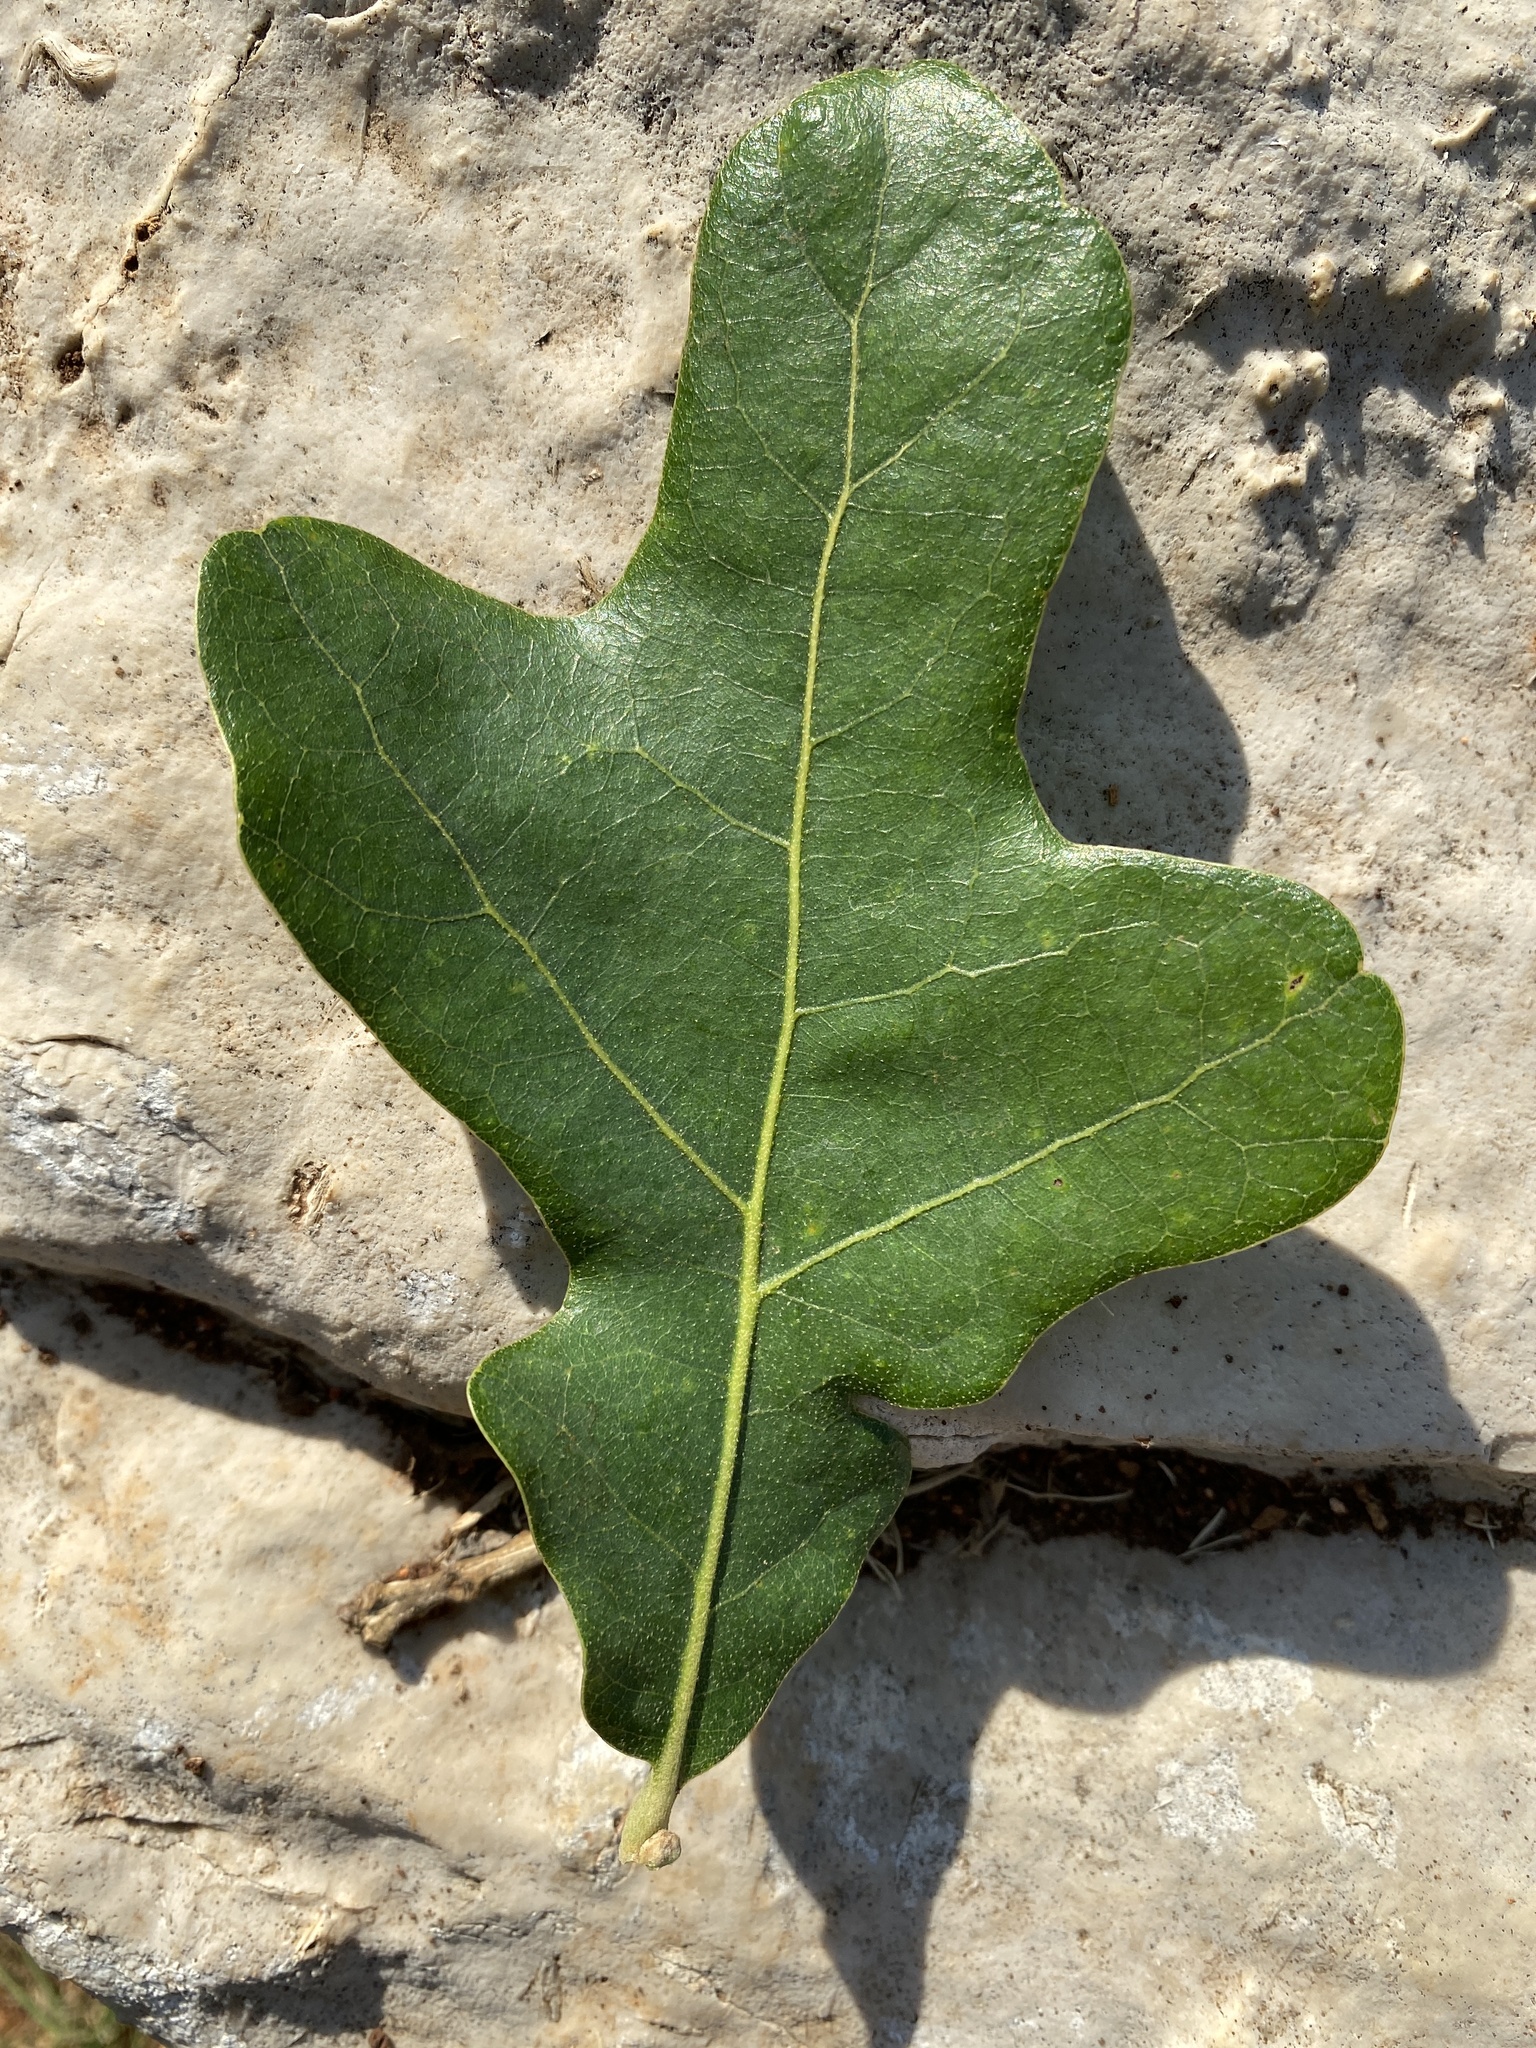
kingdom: Plantae
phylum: Tracheophyta
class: Magnoliopsida
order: Fagales
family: Fagaceae
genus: Quercus
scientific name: Quercus stellata
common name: Post oak
